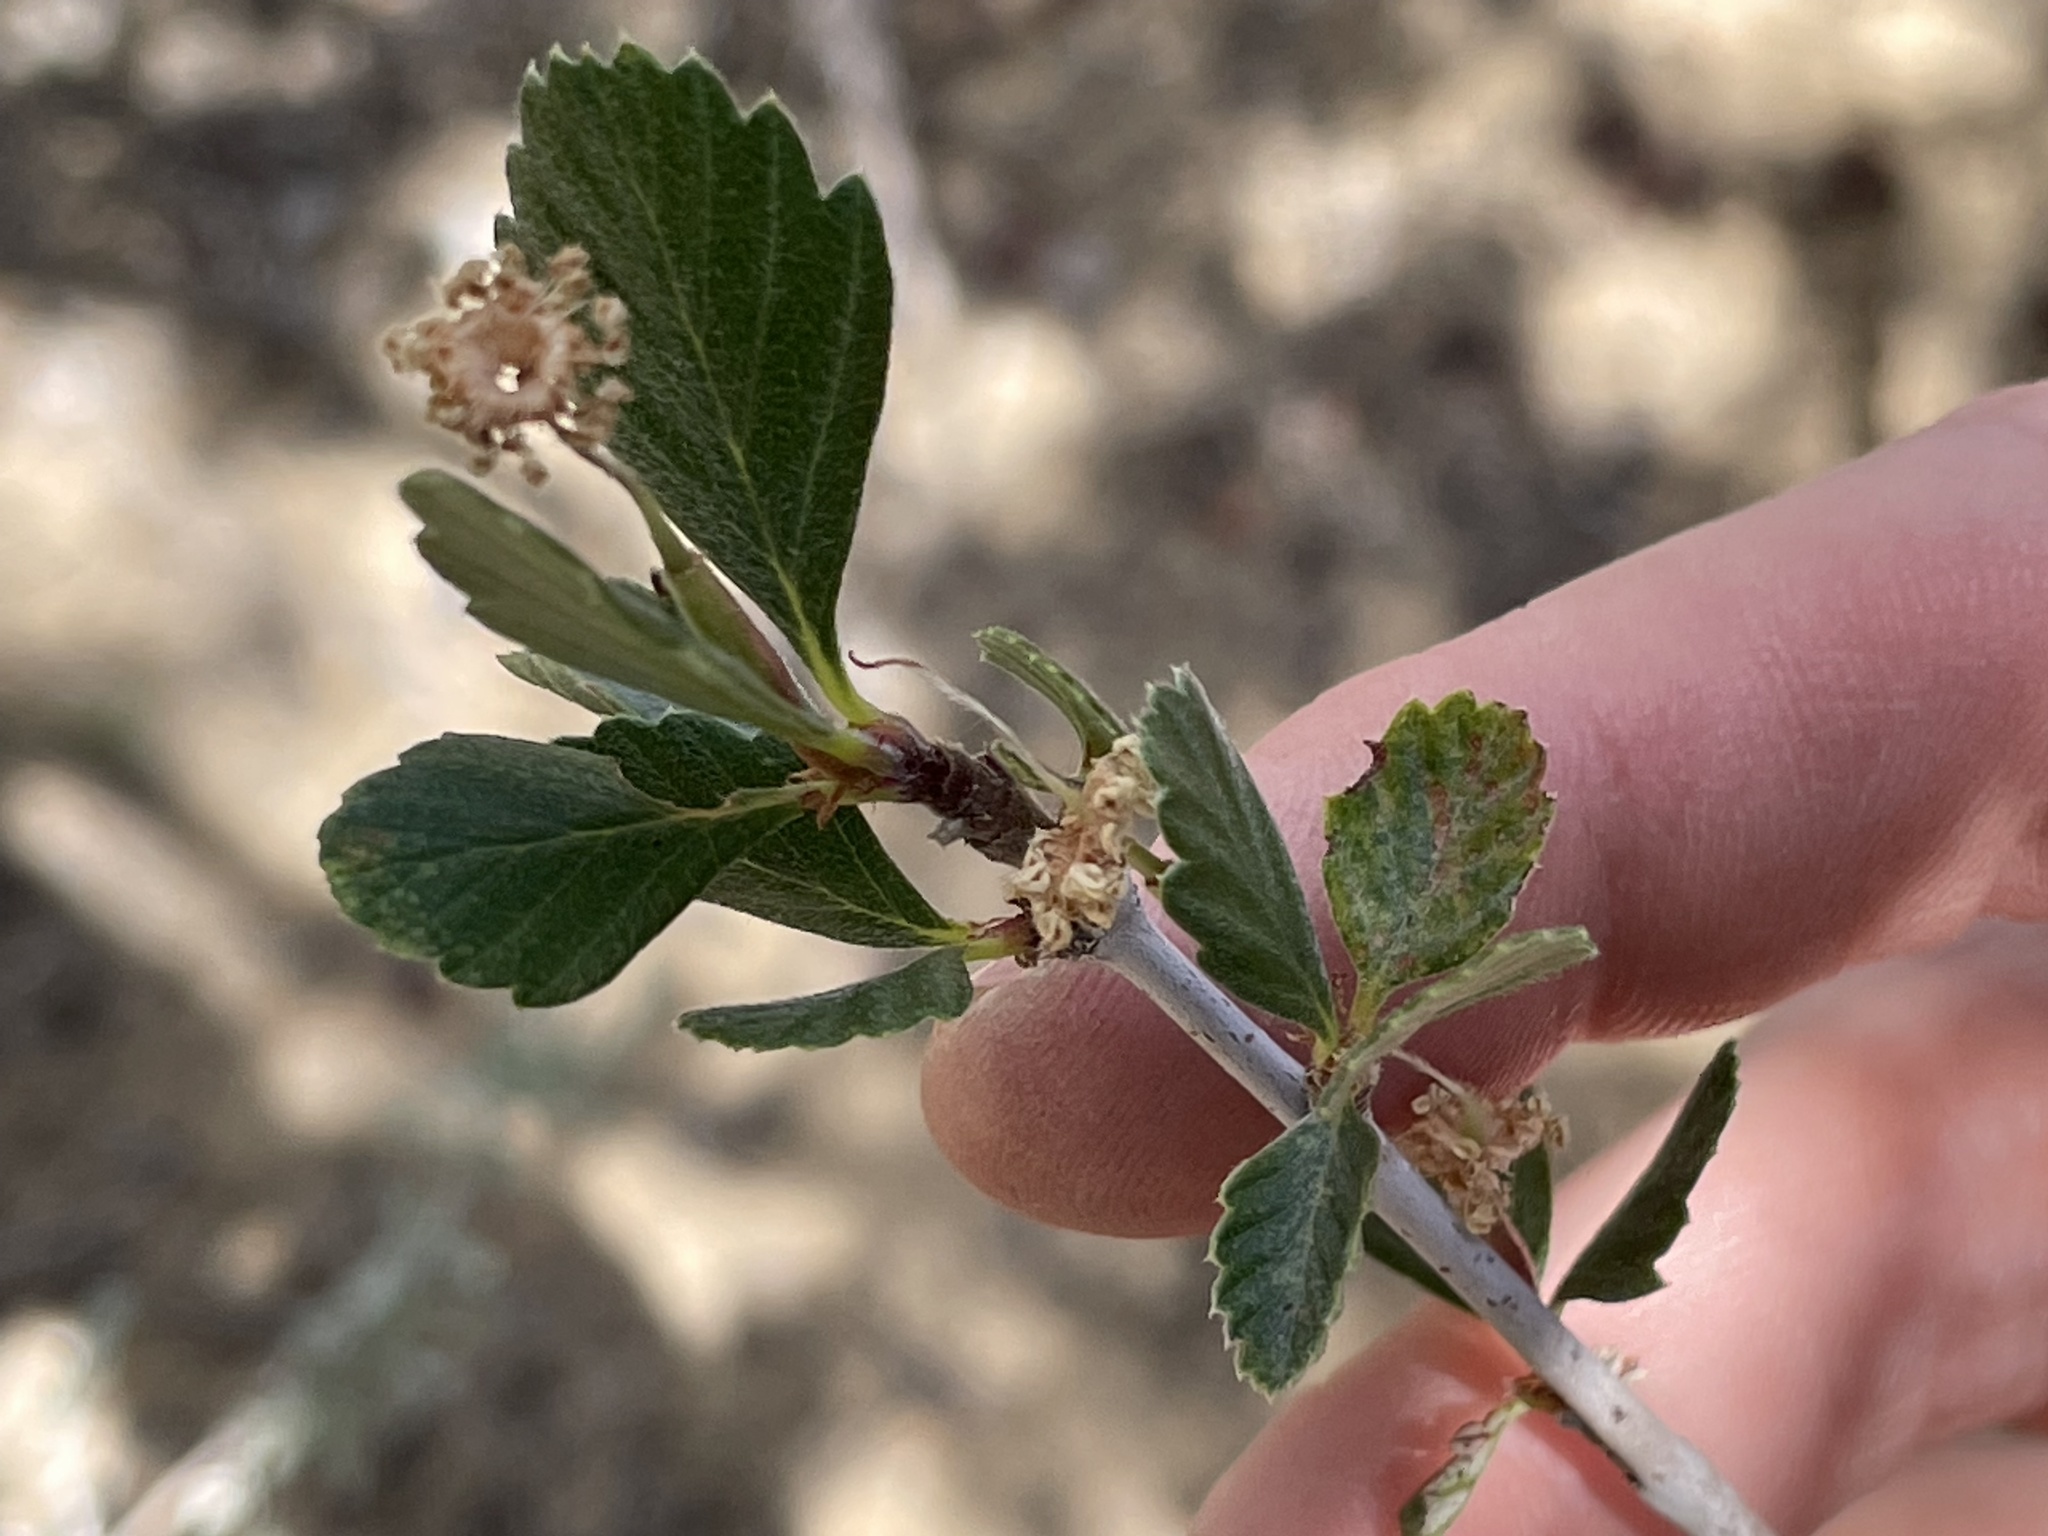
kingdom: Plantae
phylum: Tracheophyta
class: Magnoliopsida
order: Rosales
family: Rosaceae
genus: Cercocarpus
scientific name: Cercocarpus montanus
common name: Alder-leaf cercocarpus
